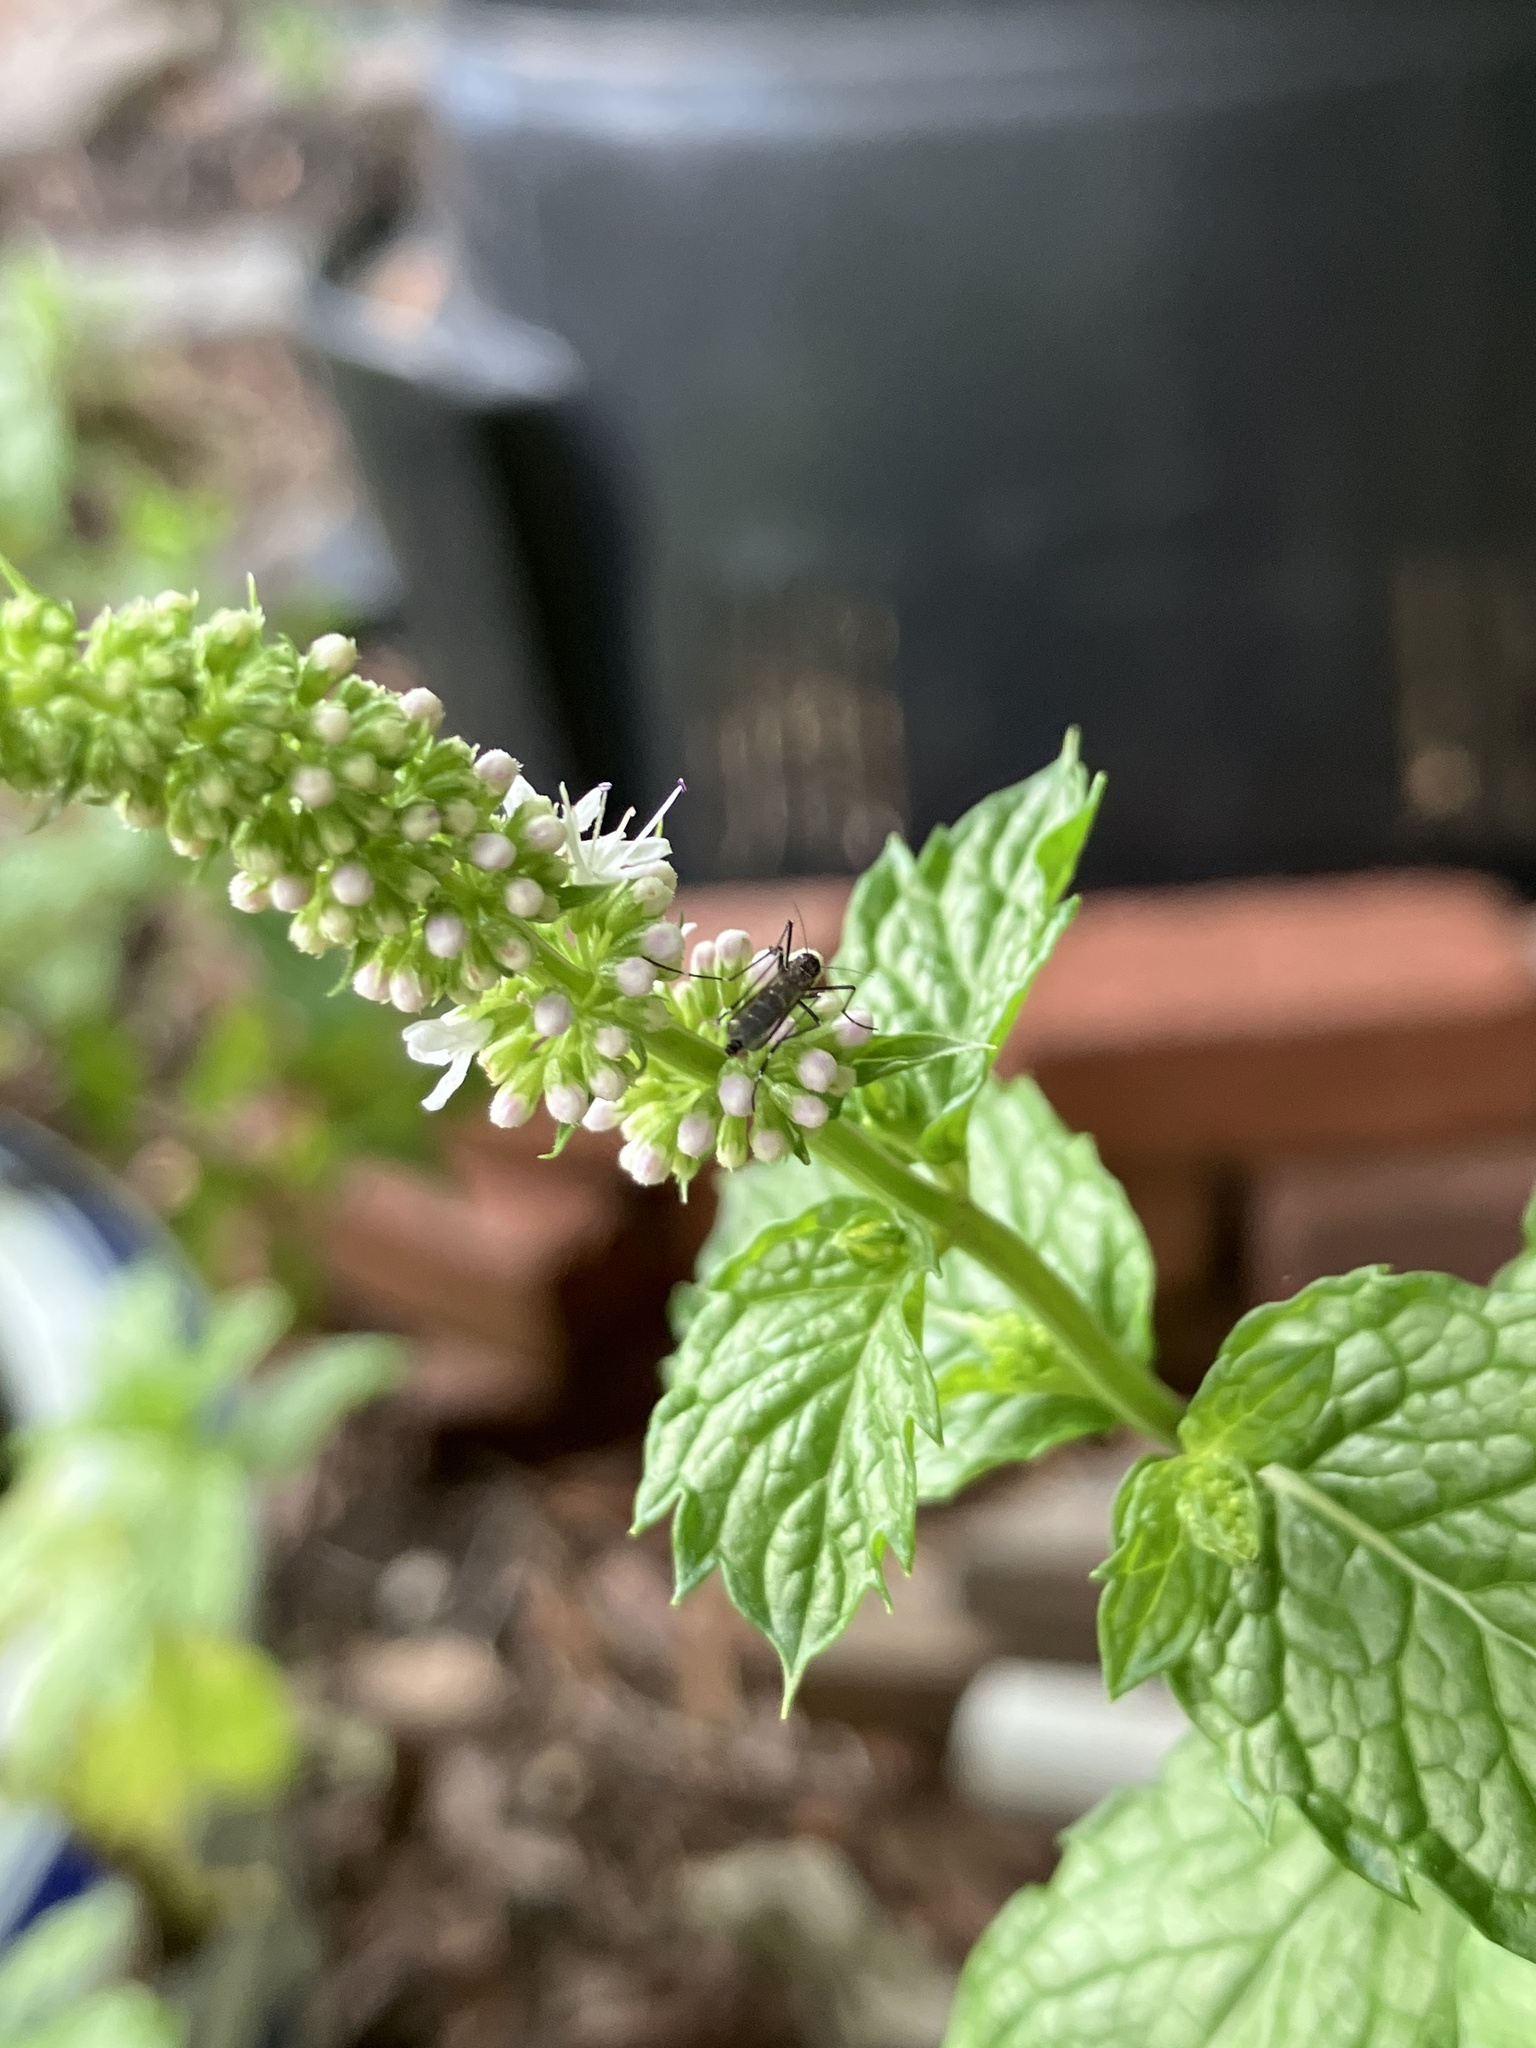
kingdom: Animalia
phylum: Arthropoda
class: Insecta
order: Diptera
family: Culicidae
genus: Aedes
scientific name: Aedes albopictus
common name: Tiger mosquito
